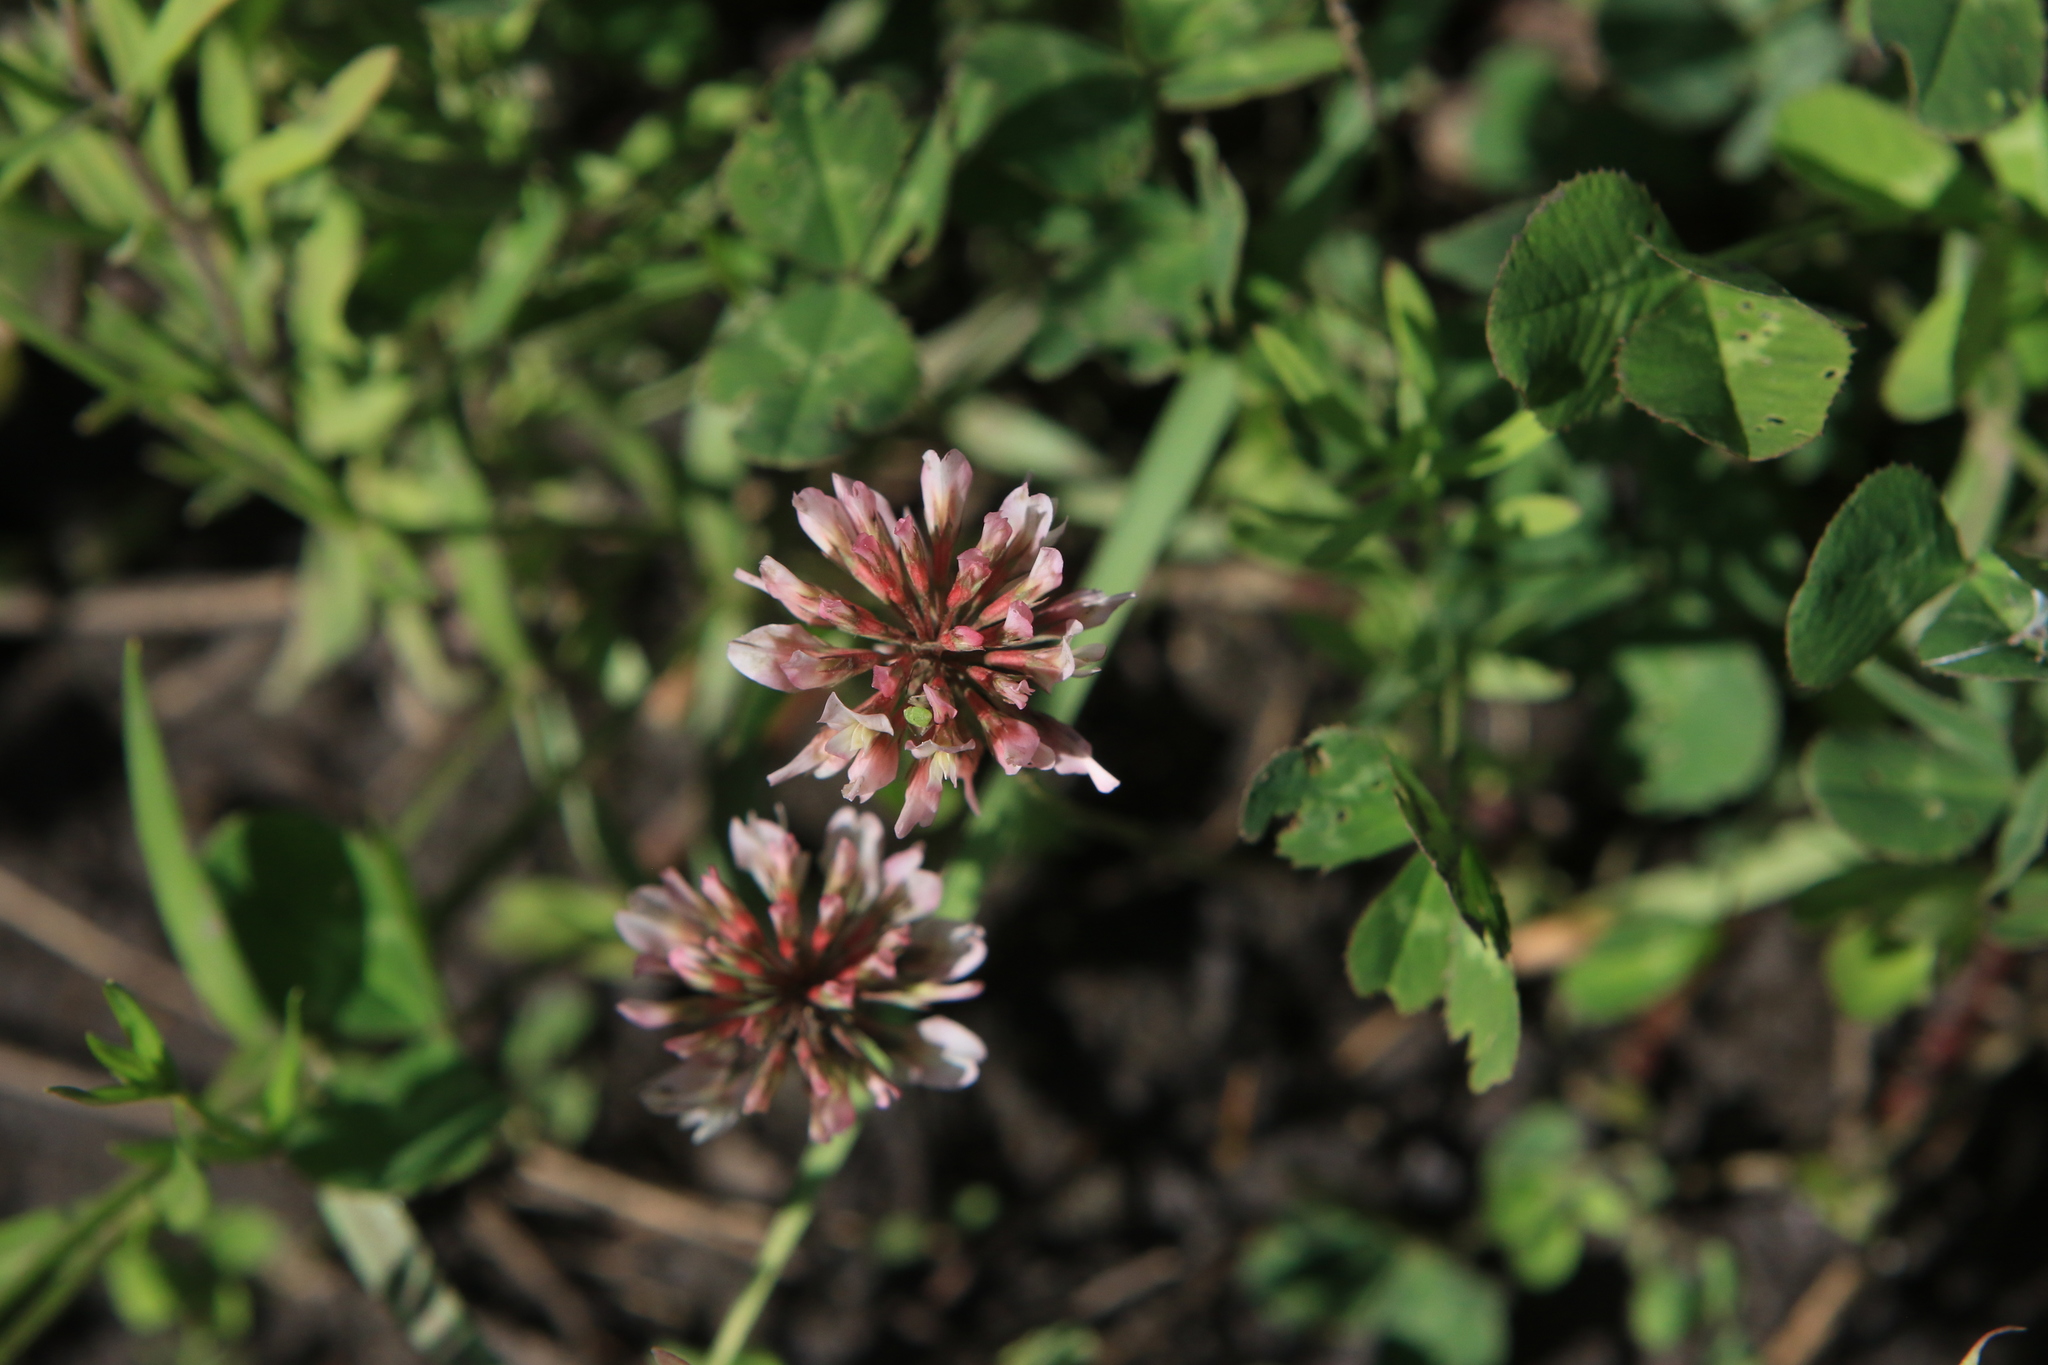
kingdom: Plantae
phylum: Tracheophyta
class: Magnoliopsida
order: Fabales
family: Fabaceae
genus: Trifolium
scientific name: Trifolium repens
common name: White clover
